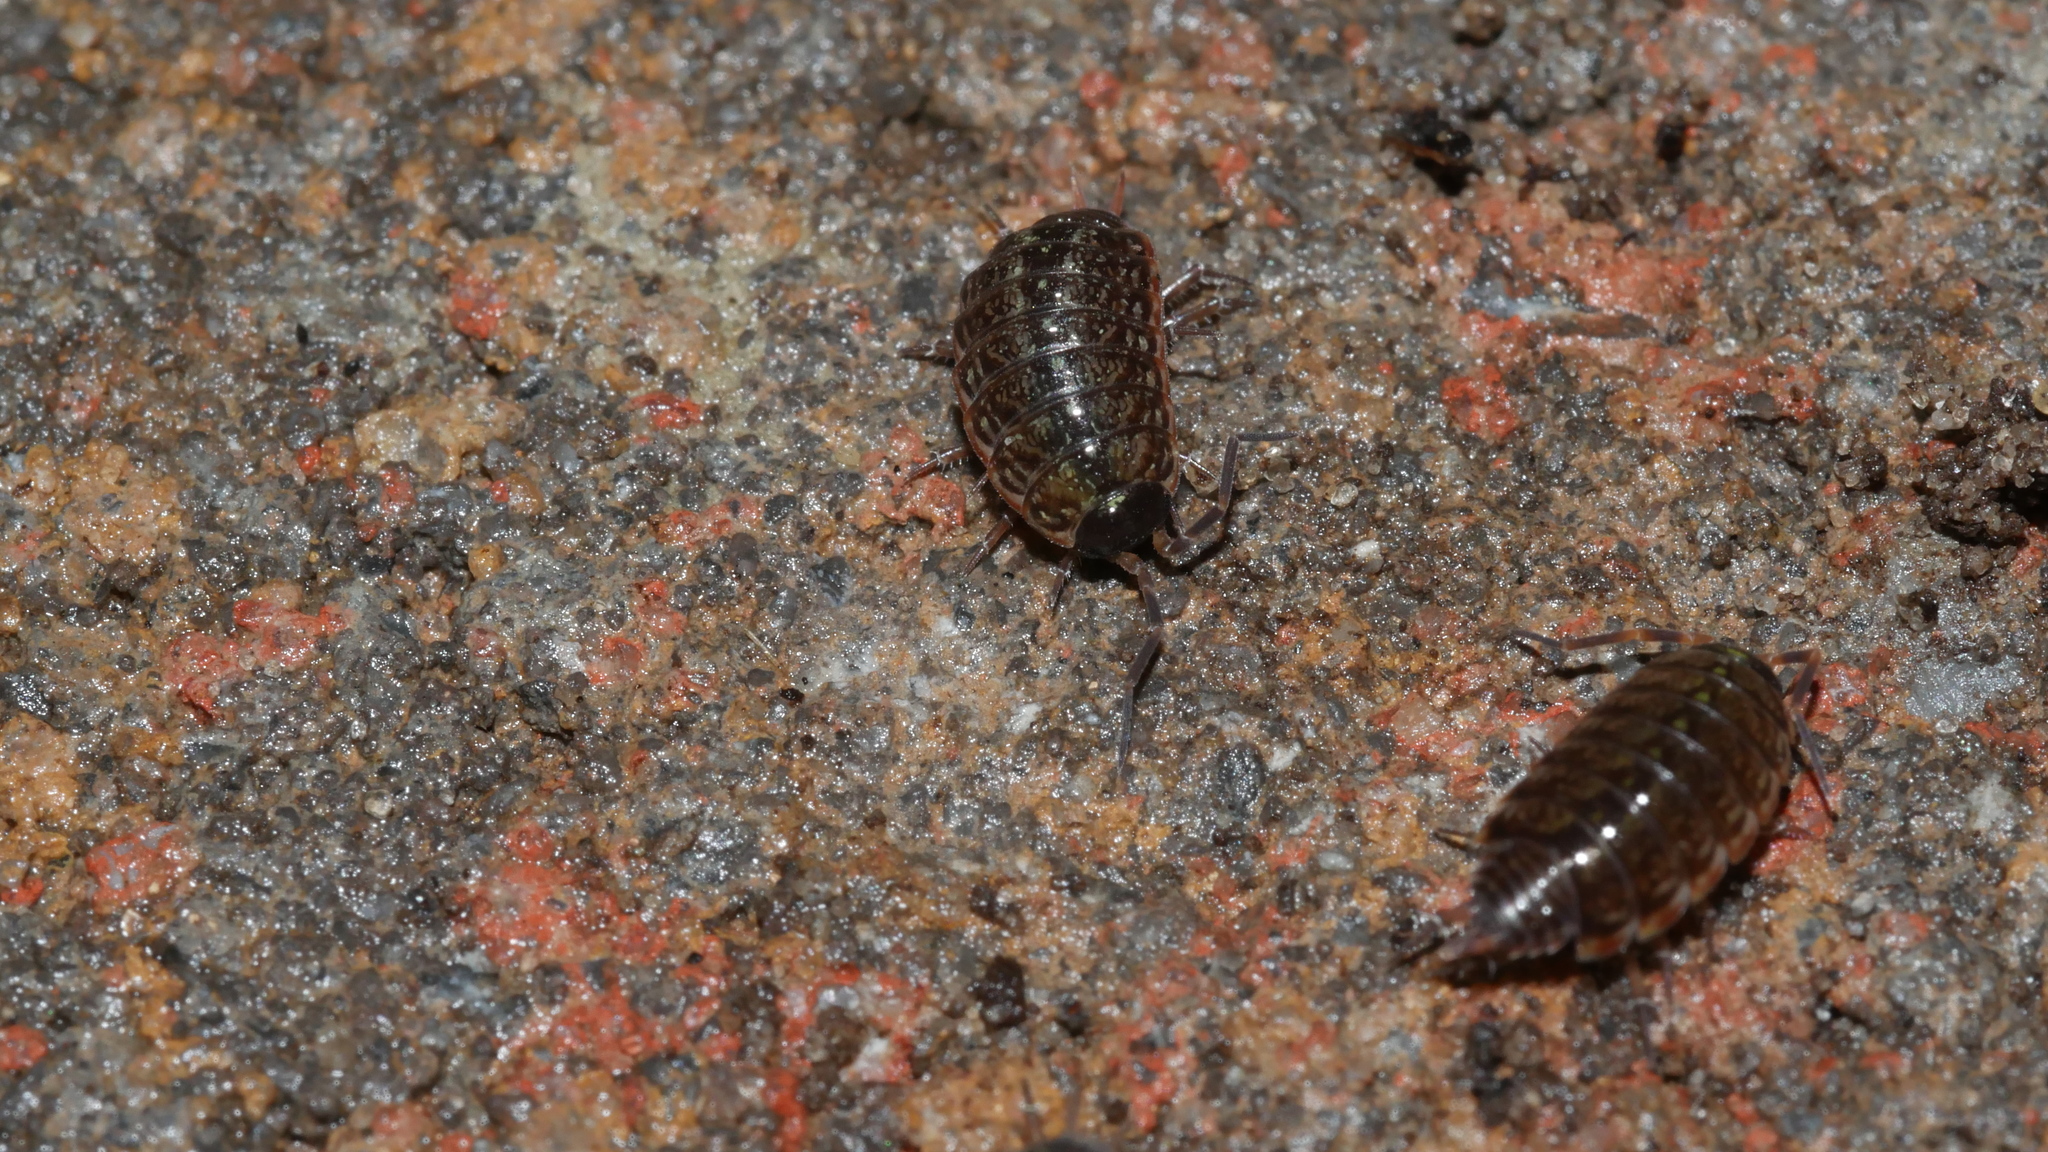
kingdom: Animalia
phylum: Arthropoda
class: Malacostraca
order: Isopoda
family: Philosciidae
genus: Philoscia
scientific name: Philoscia muscorum
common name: Common striped woodlouse
